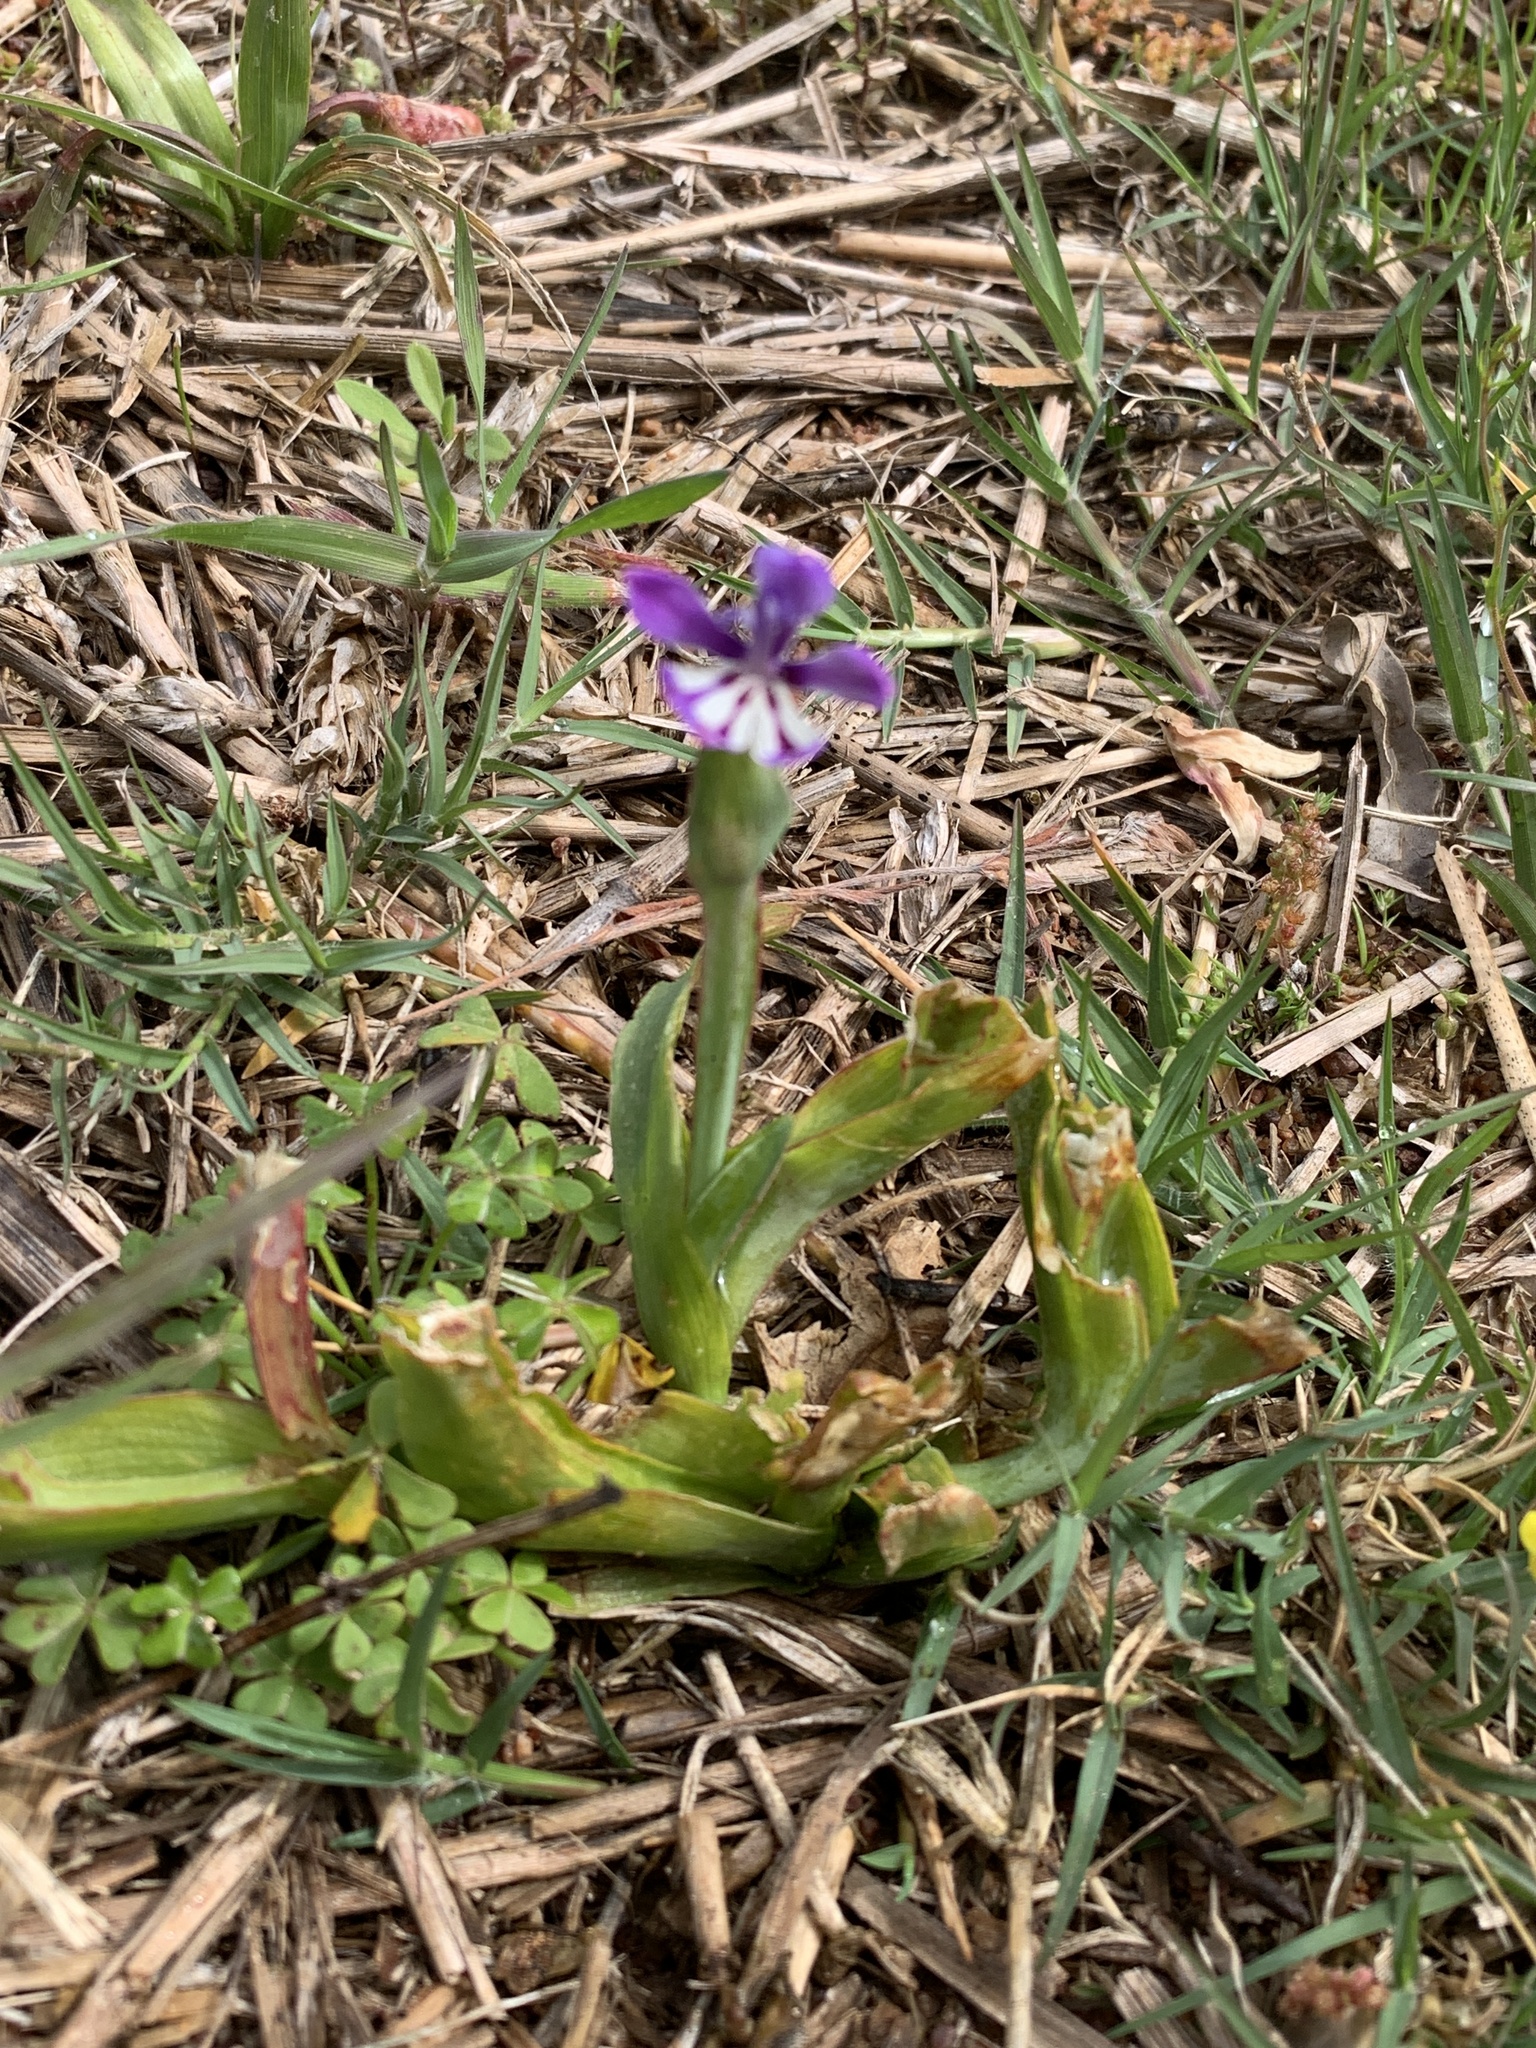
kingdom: Plantae
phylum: Tracheophyta
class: Liliopsida
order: Asparagales
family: Iridaceae
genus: Lapeirousia
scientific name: Lapeirousia jacquinii
